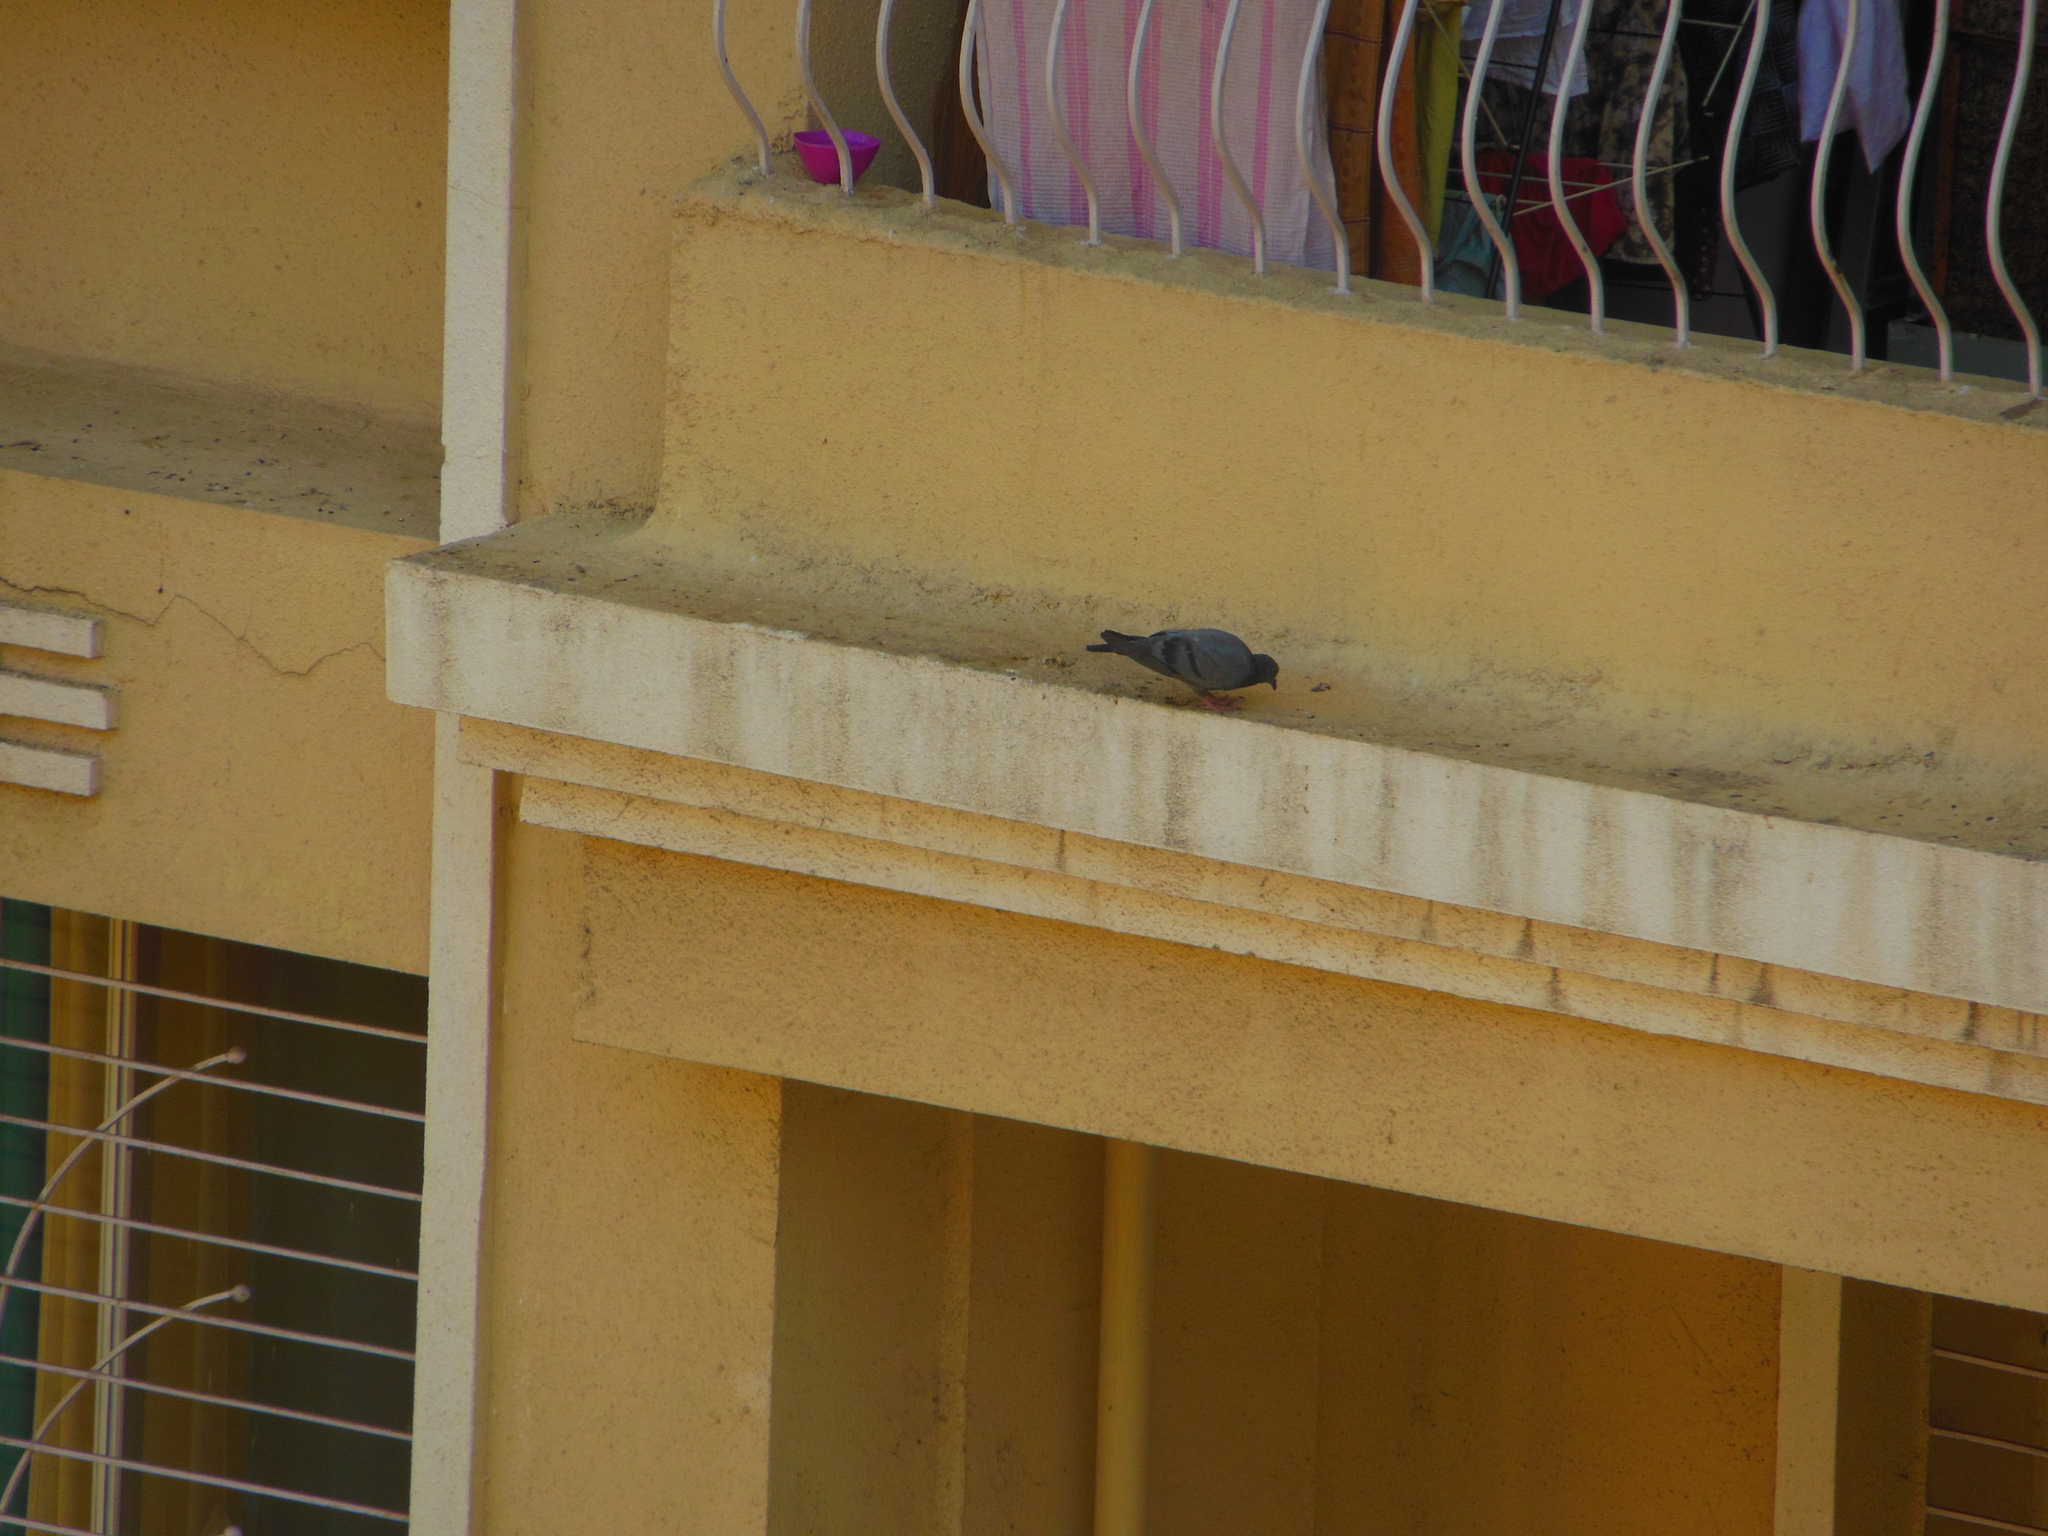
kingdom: Animalia
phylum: Chordata
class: Aves
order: Columbiformes
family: Columbidae
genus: Columba
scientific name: Columba livia
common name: Rock pigeon
